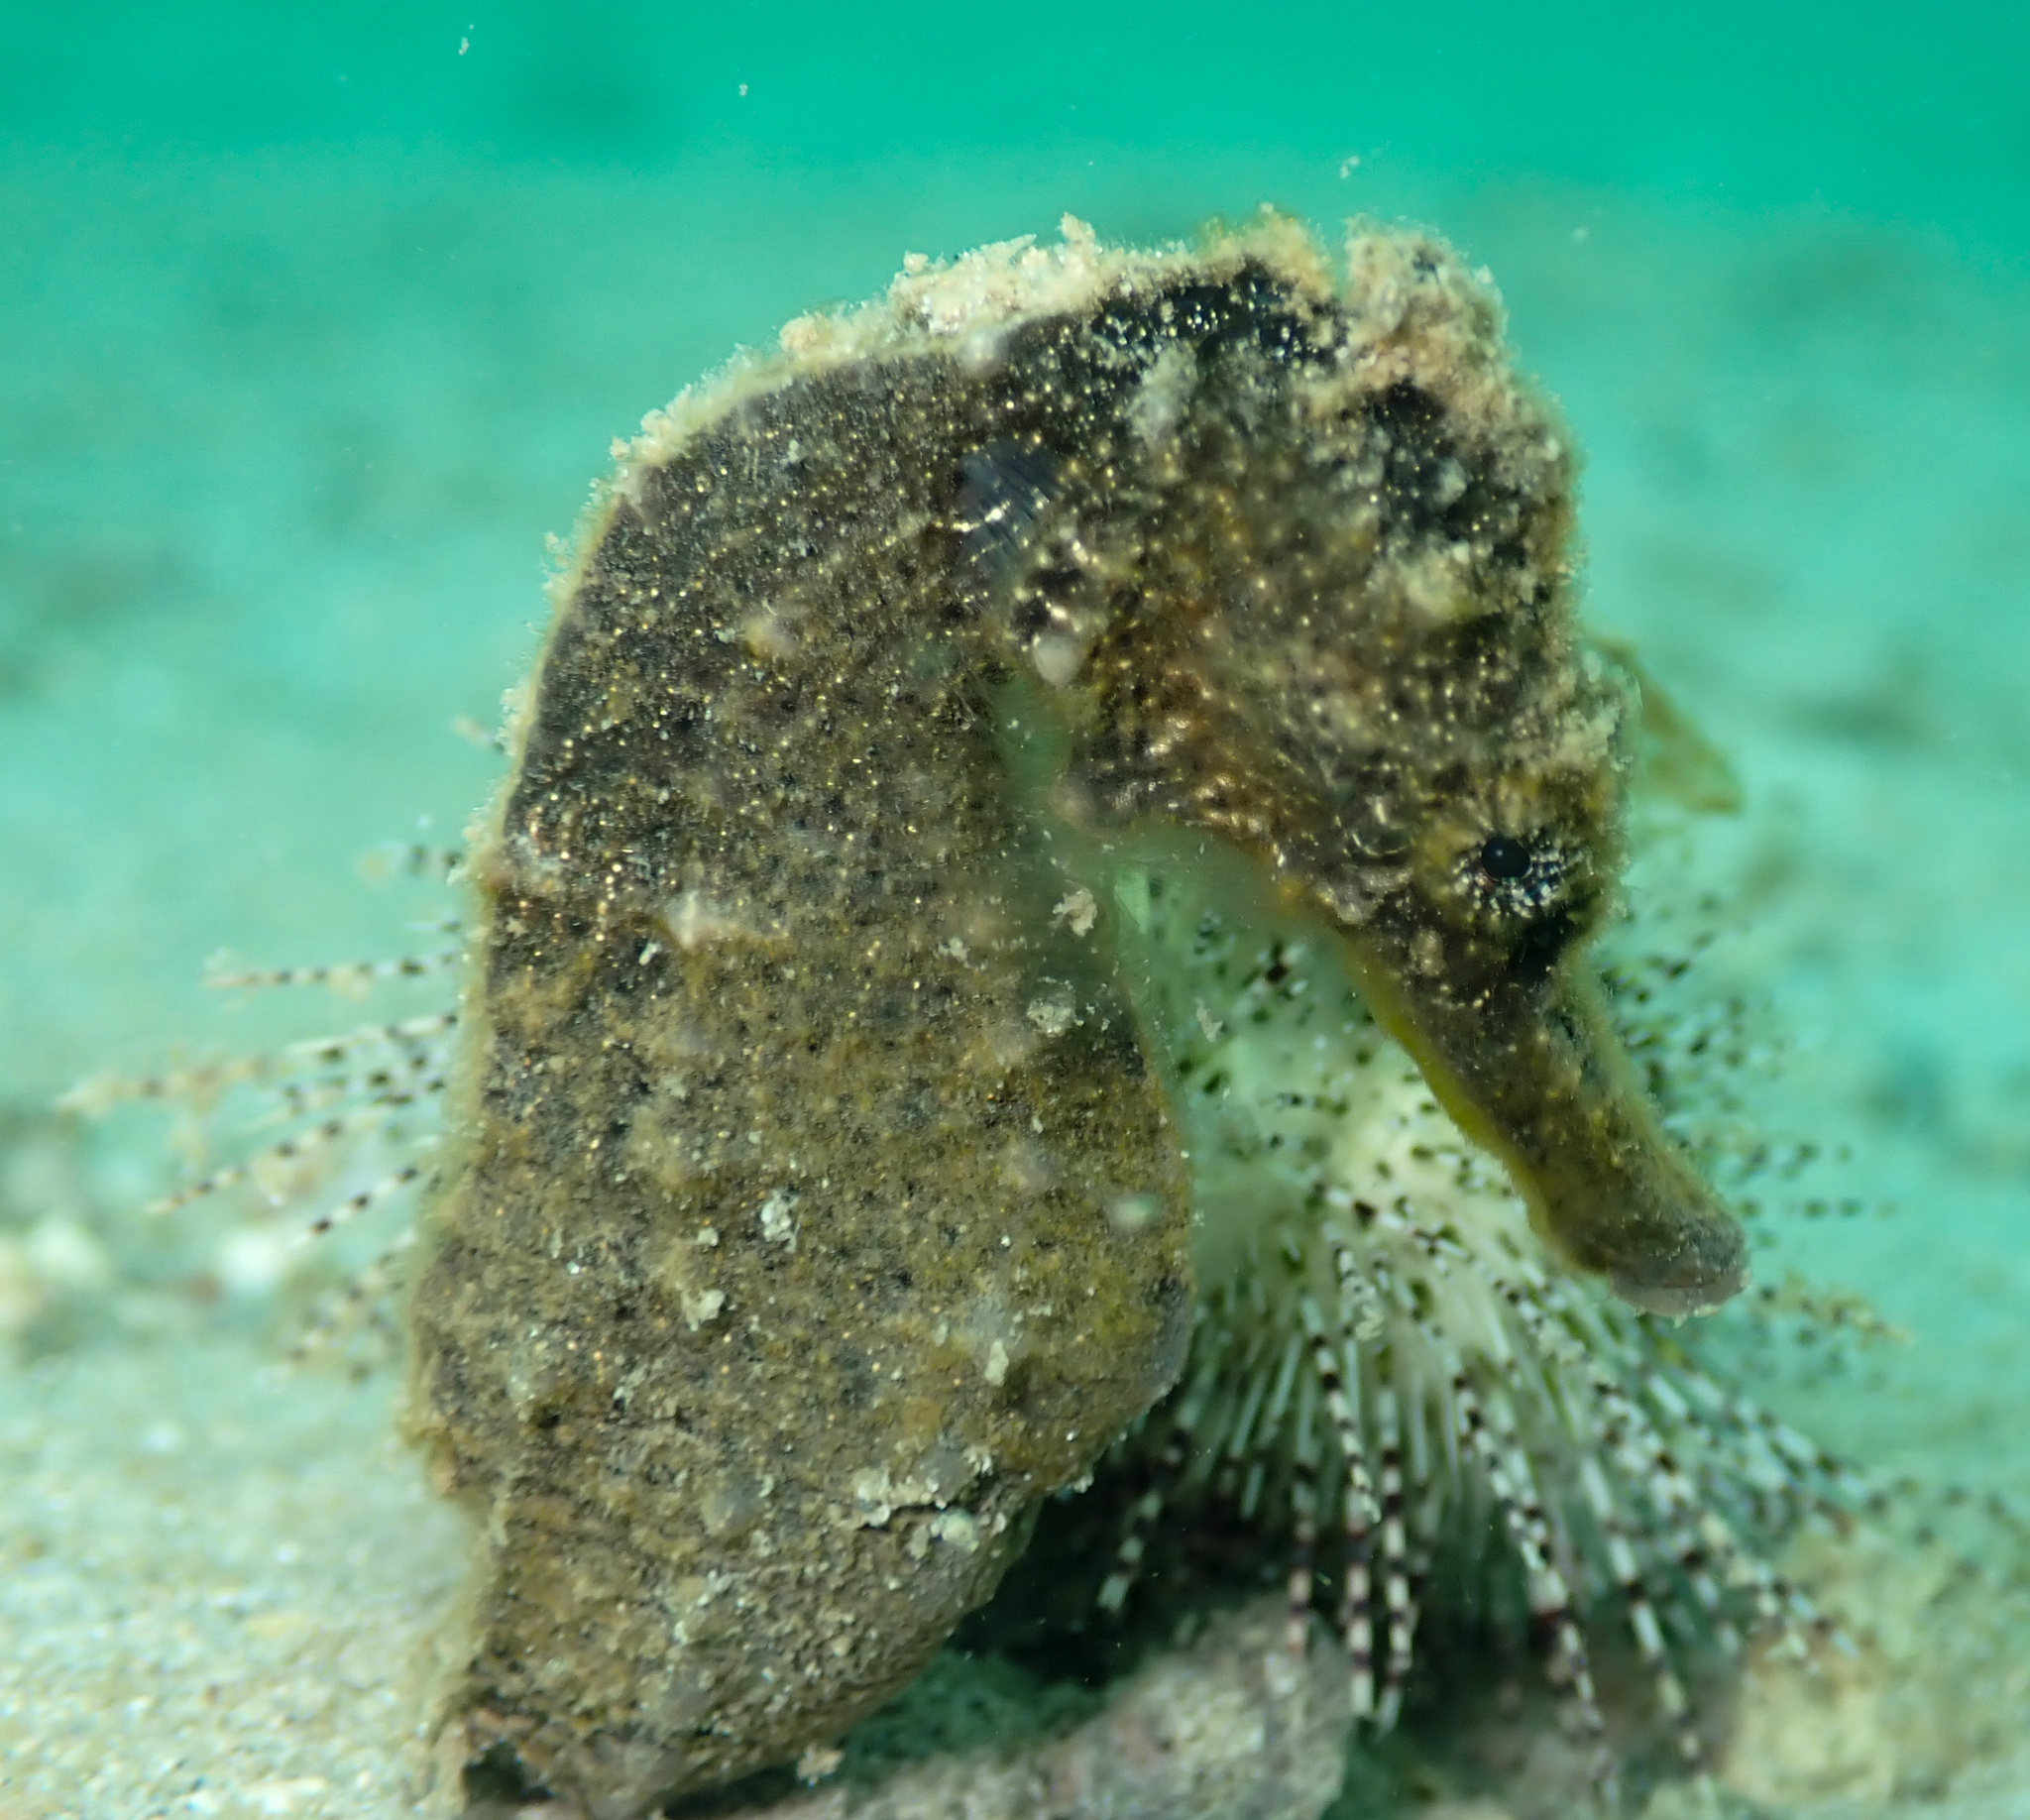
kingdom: Animalia
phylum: Chordata
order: Syngnathiformes
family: Syngnathidae
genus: Hippocampus
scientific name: Hippocampus kuda
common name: Spotted seahorse
